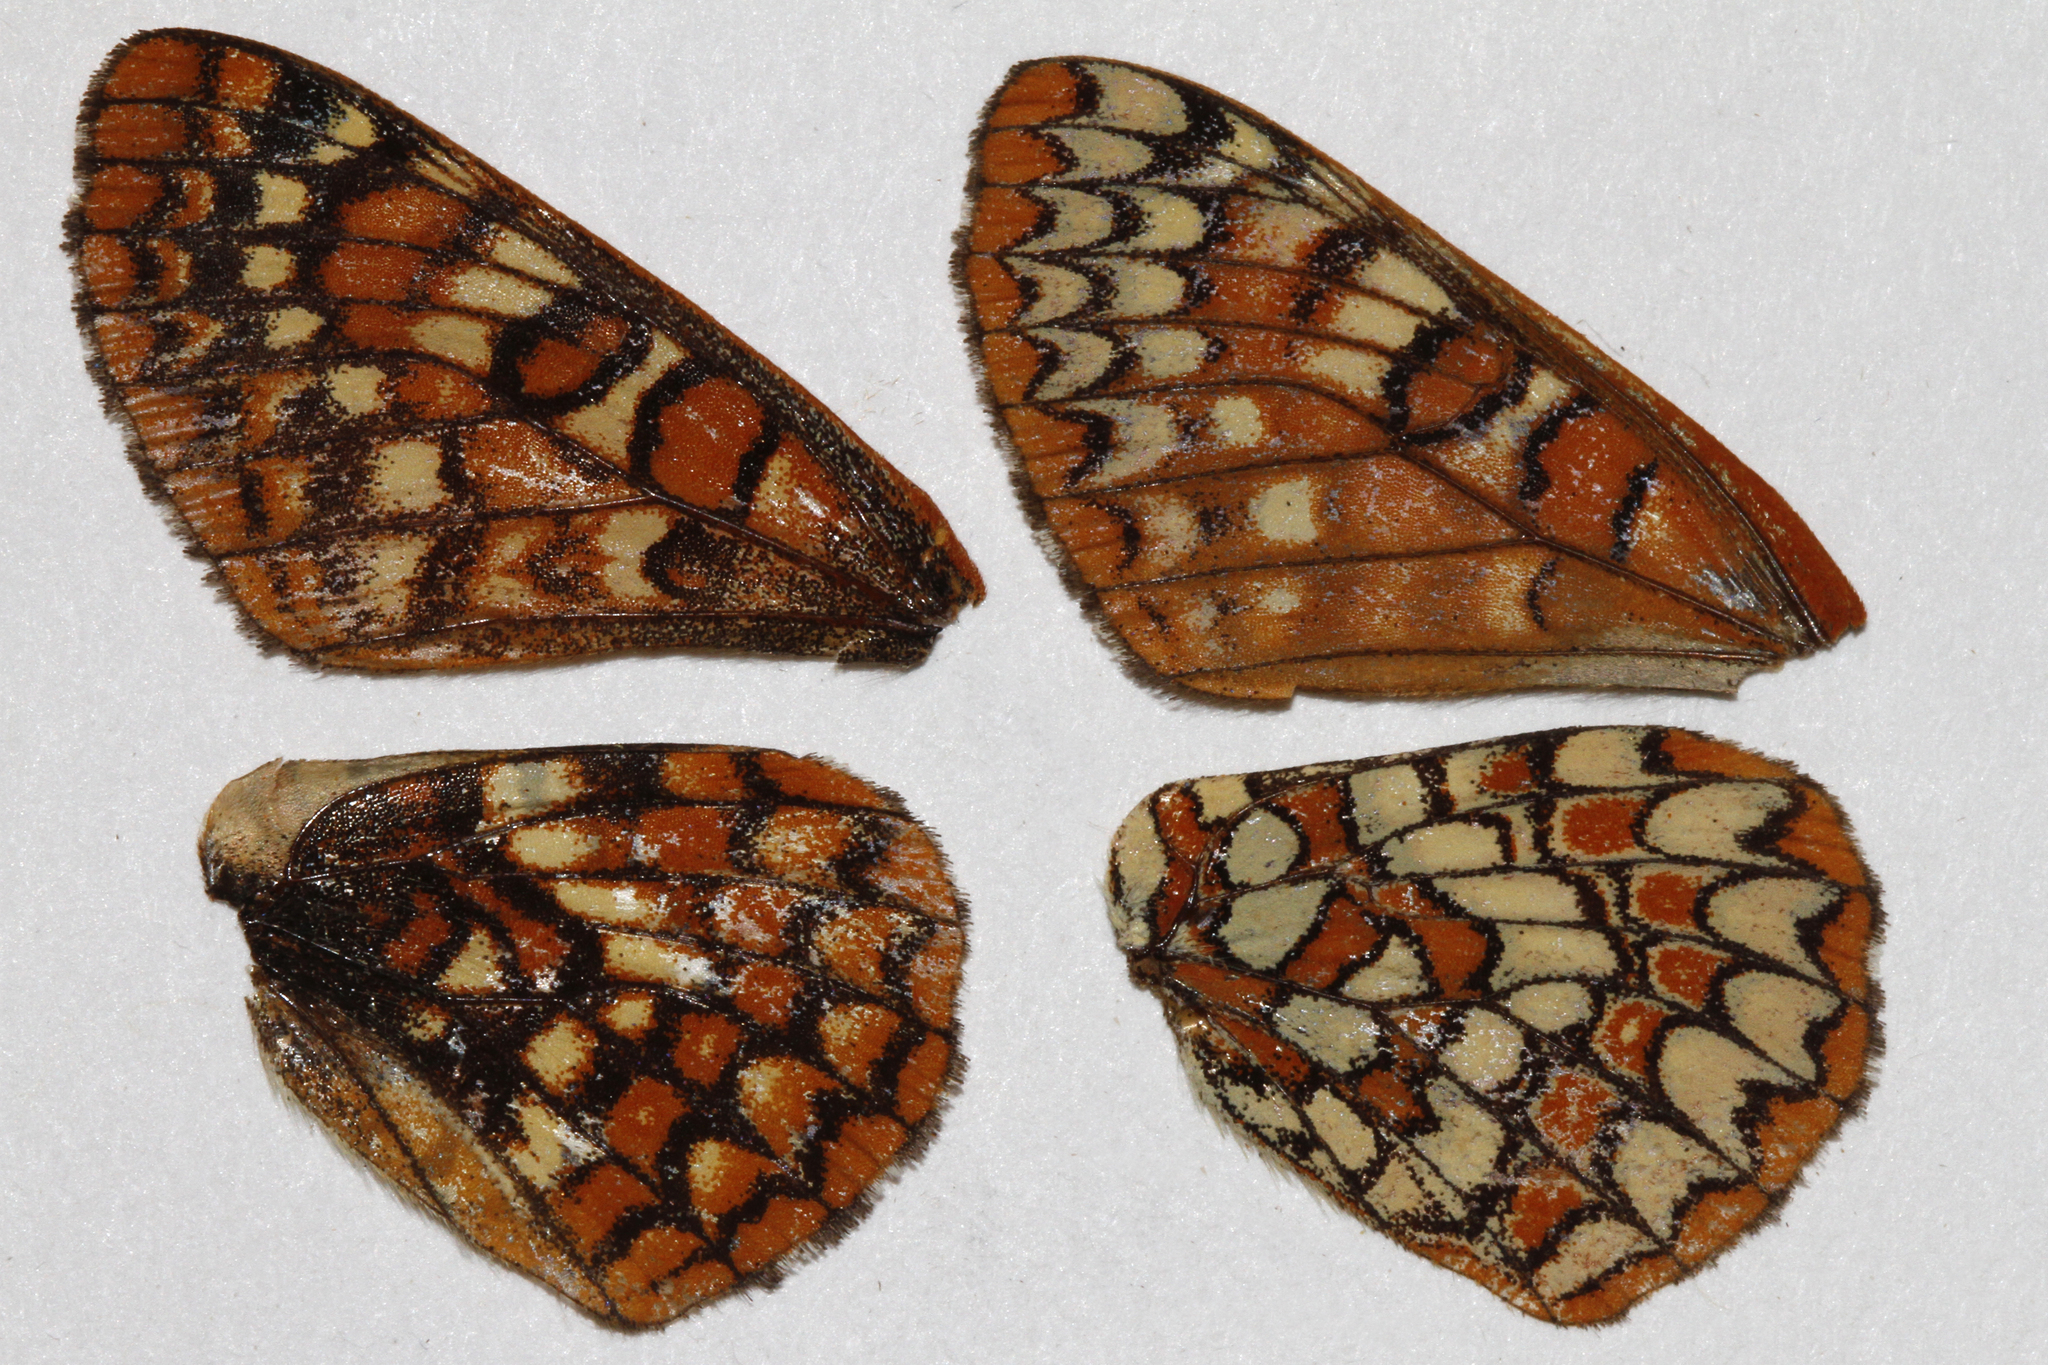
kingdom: Animalia
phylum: Arthropoda
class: Insecta
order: Lepidoptera
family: Nymphalidae
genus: Occidryas
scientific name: Occidryas anicia
